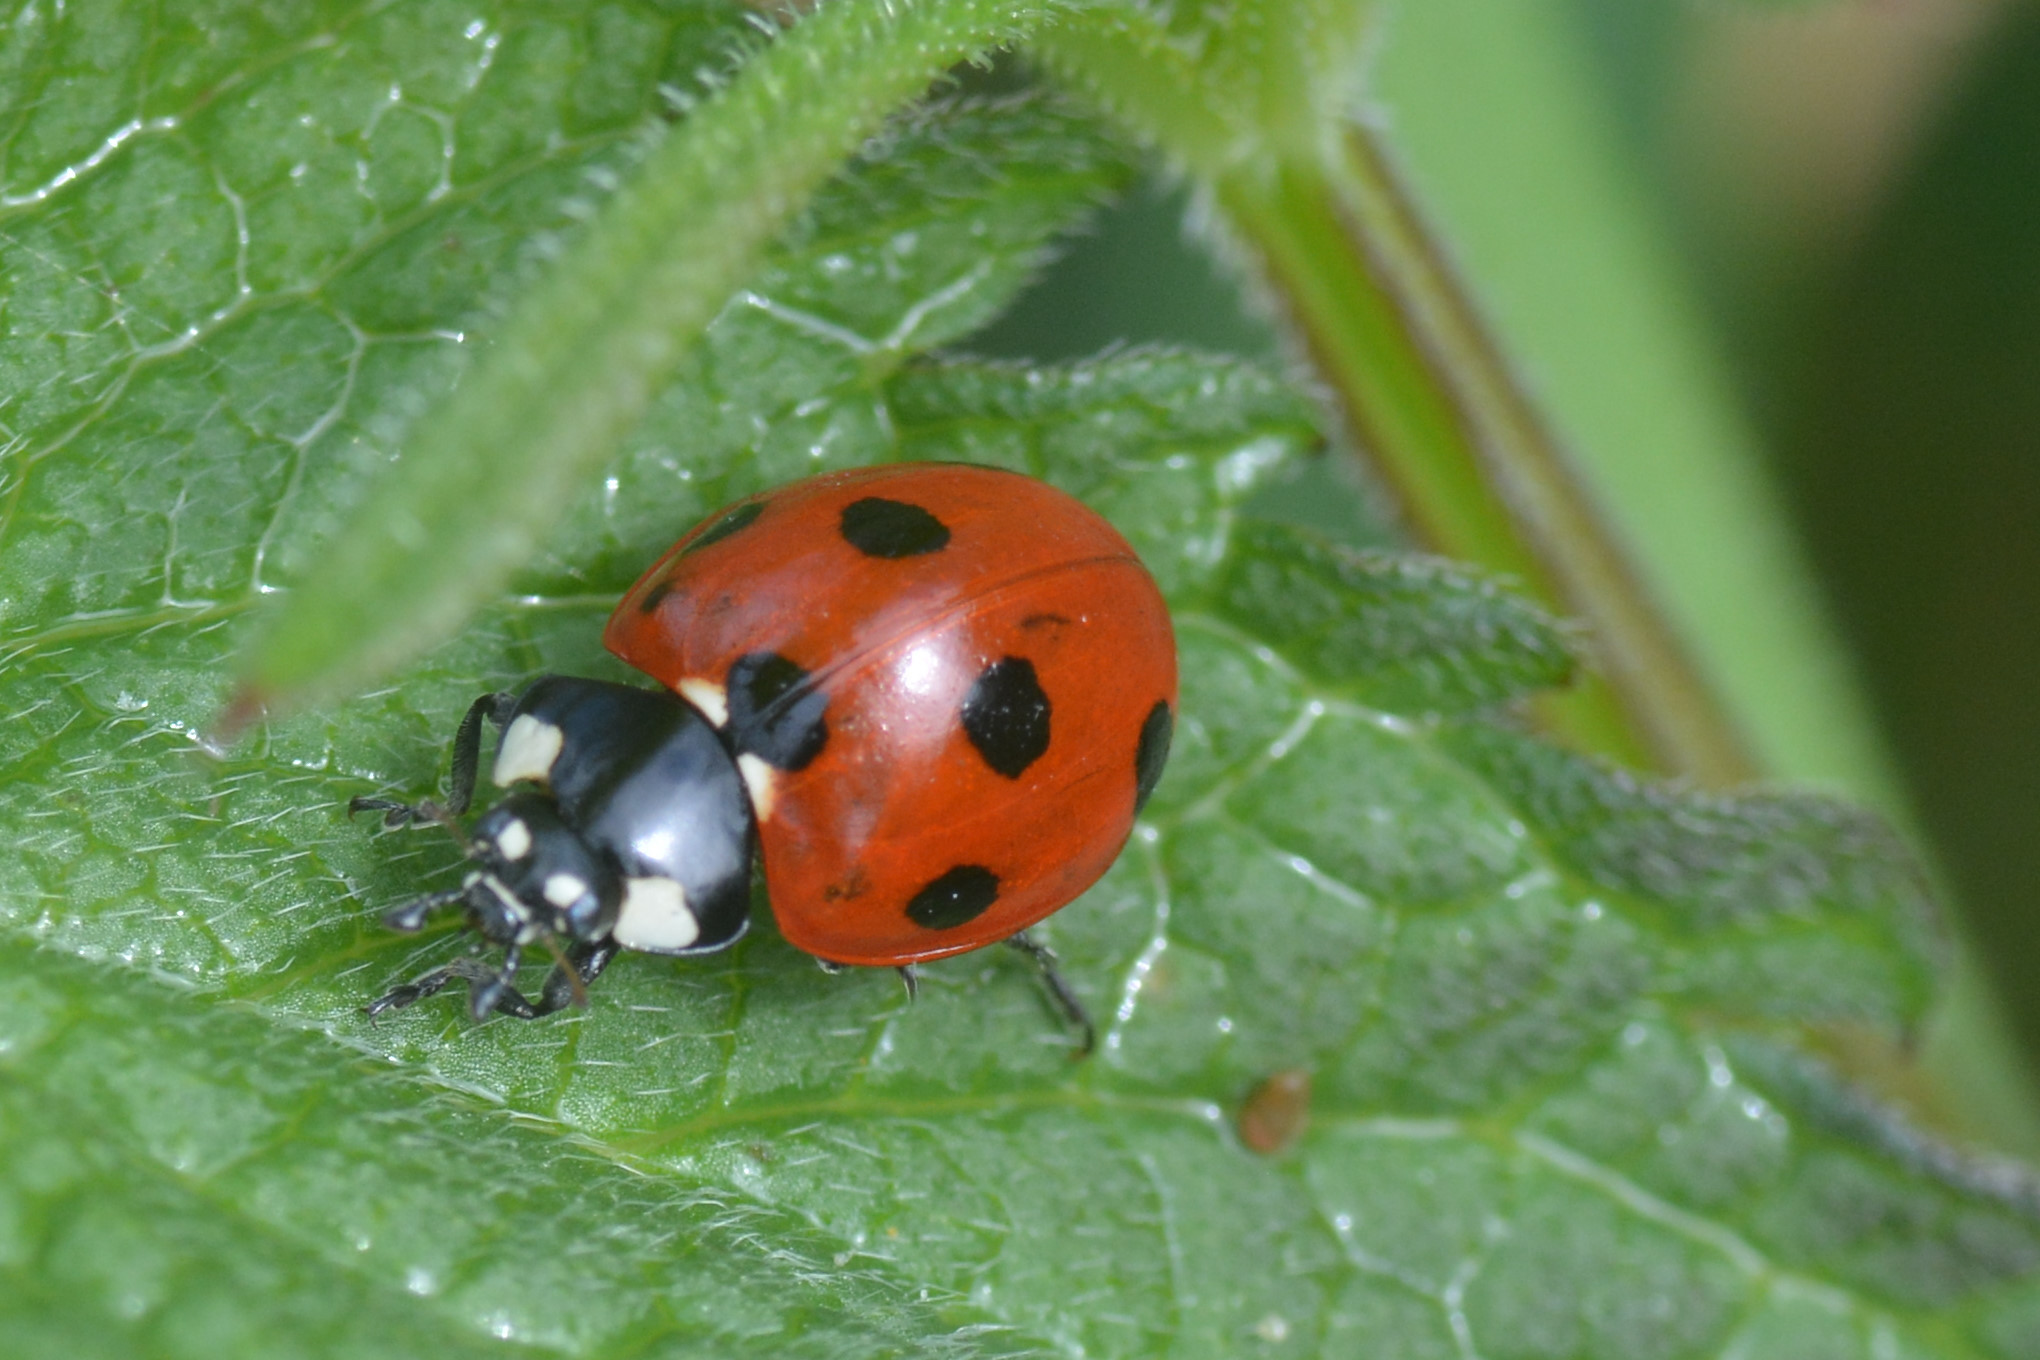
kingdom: Animalia
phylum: Arthropoda
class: Insecta
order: Coleoptera
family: Coccinellidae
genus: Coccinella
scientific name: Coccinella septempunctata
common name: Sevenspotted lady beetle
